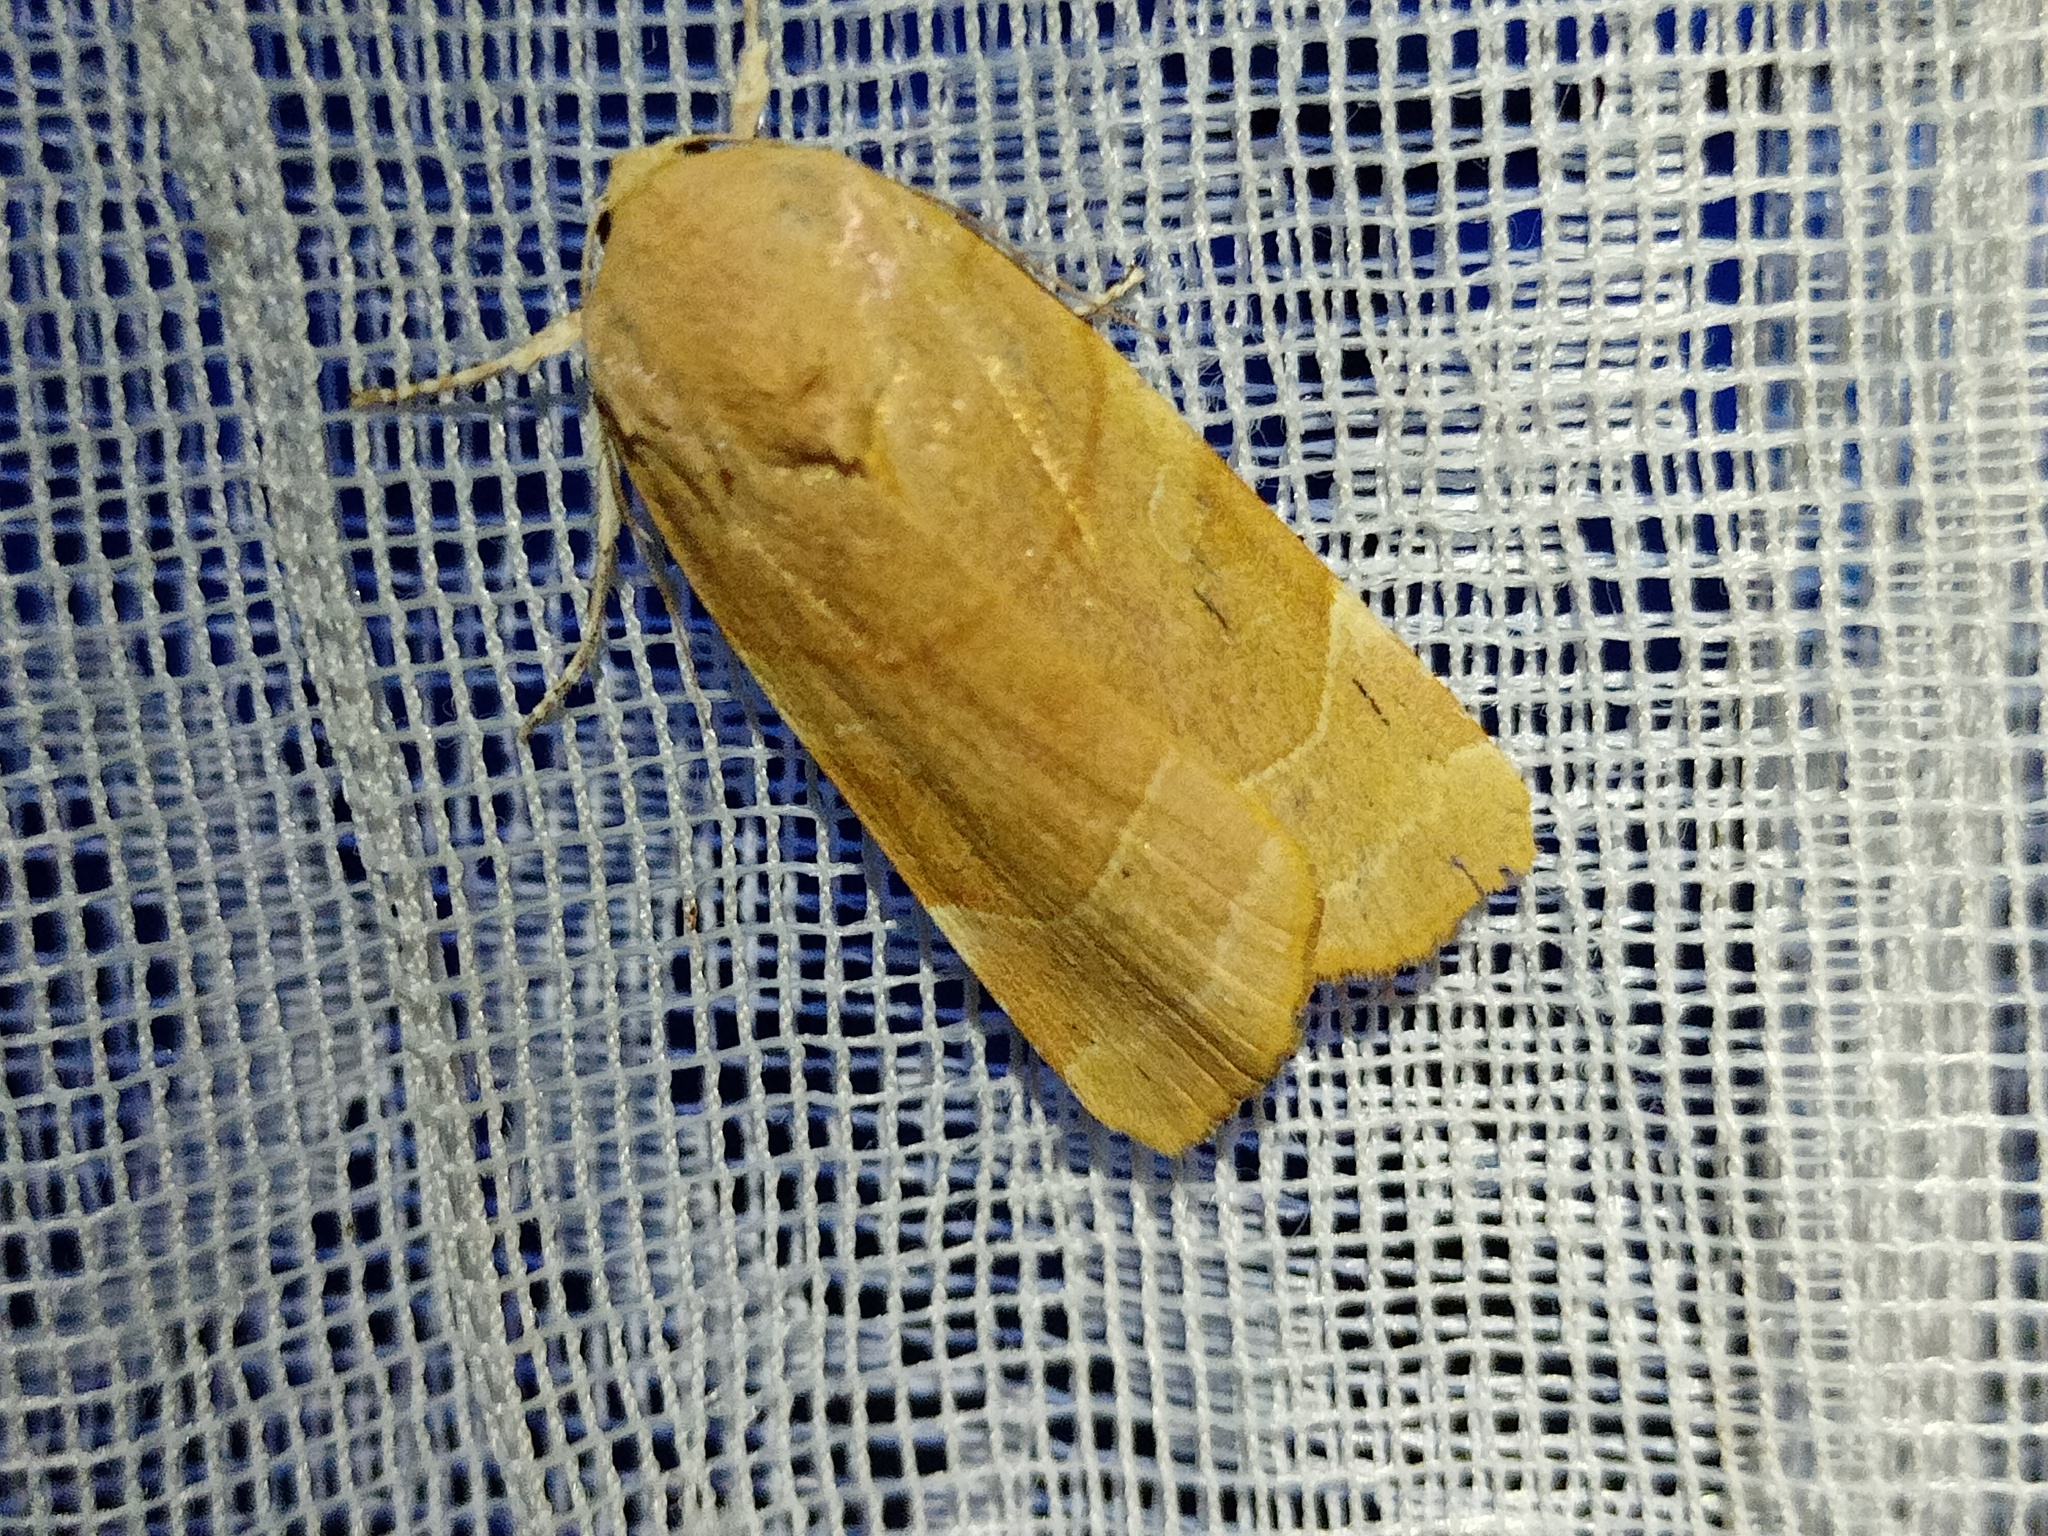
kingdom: Animalia
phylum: Arthropoda
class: Insecta
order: Lepidoptera
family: Noctuidae
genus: Noctua
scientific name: Noctua fimbriata
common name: Broad-bordered yellow underwing
